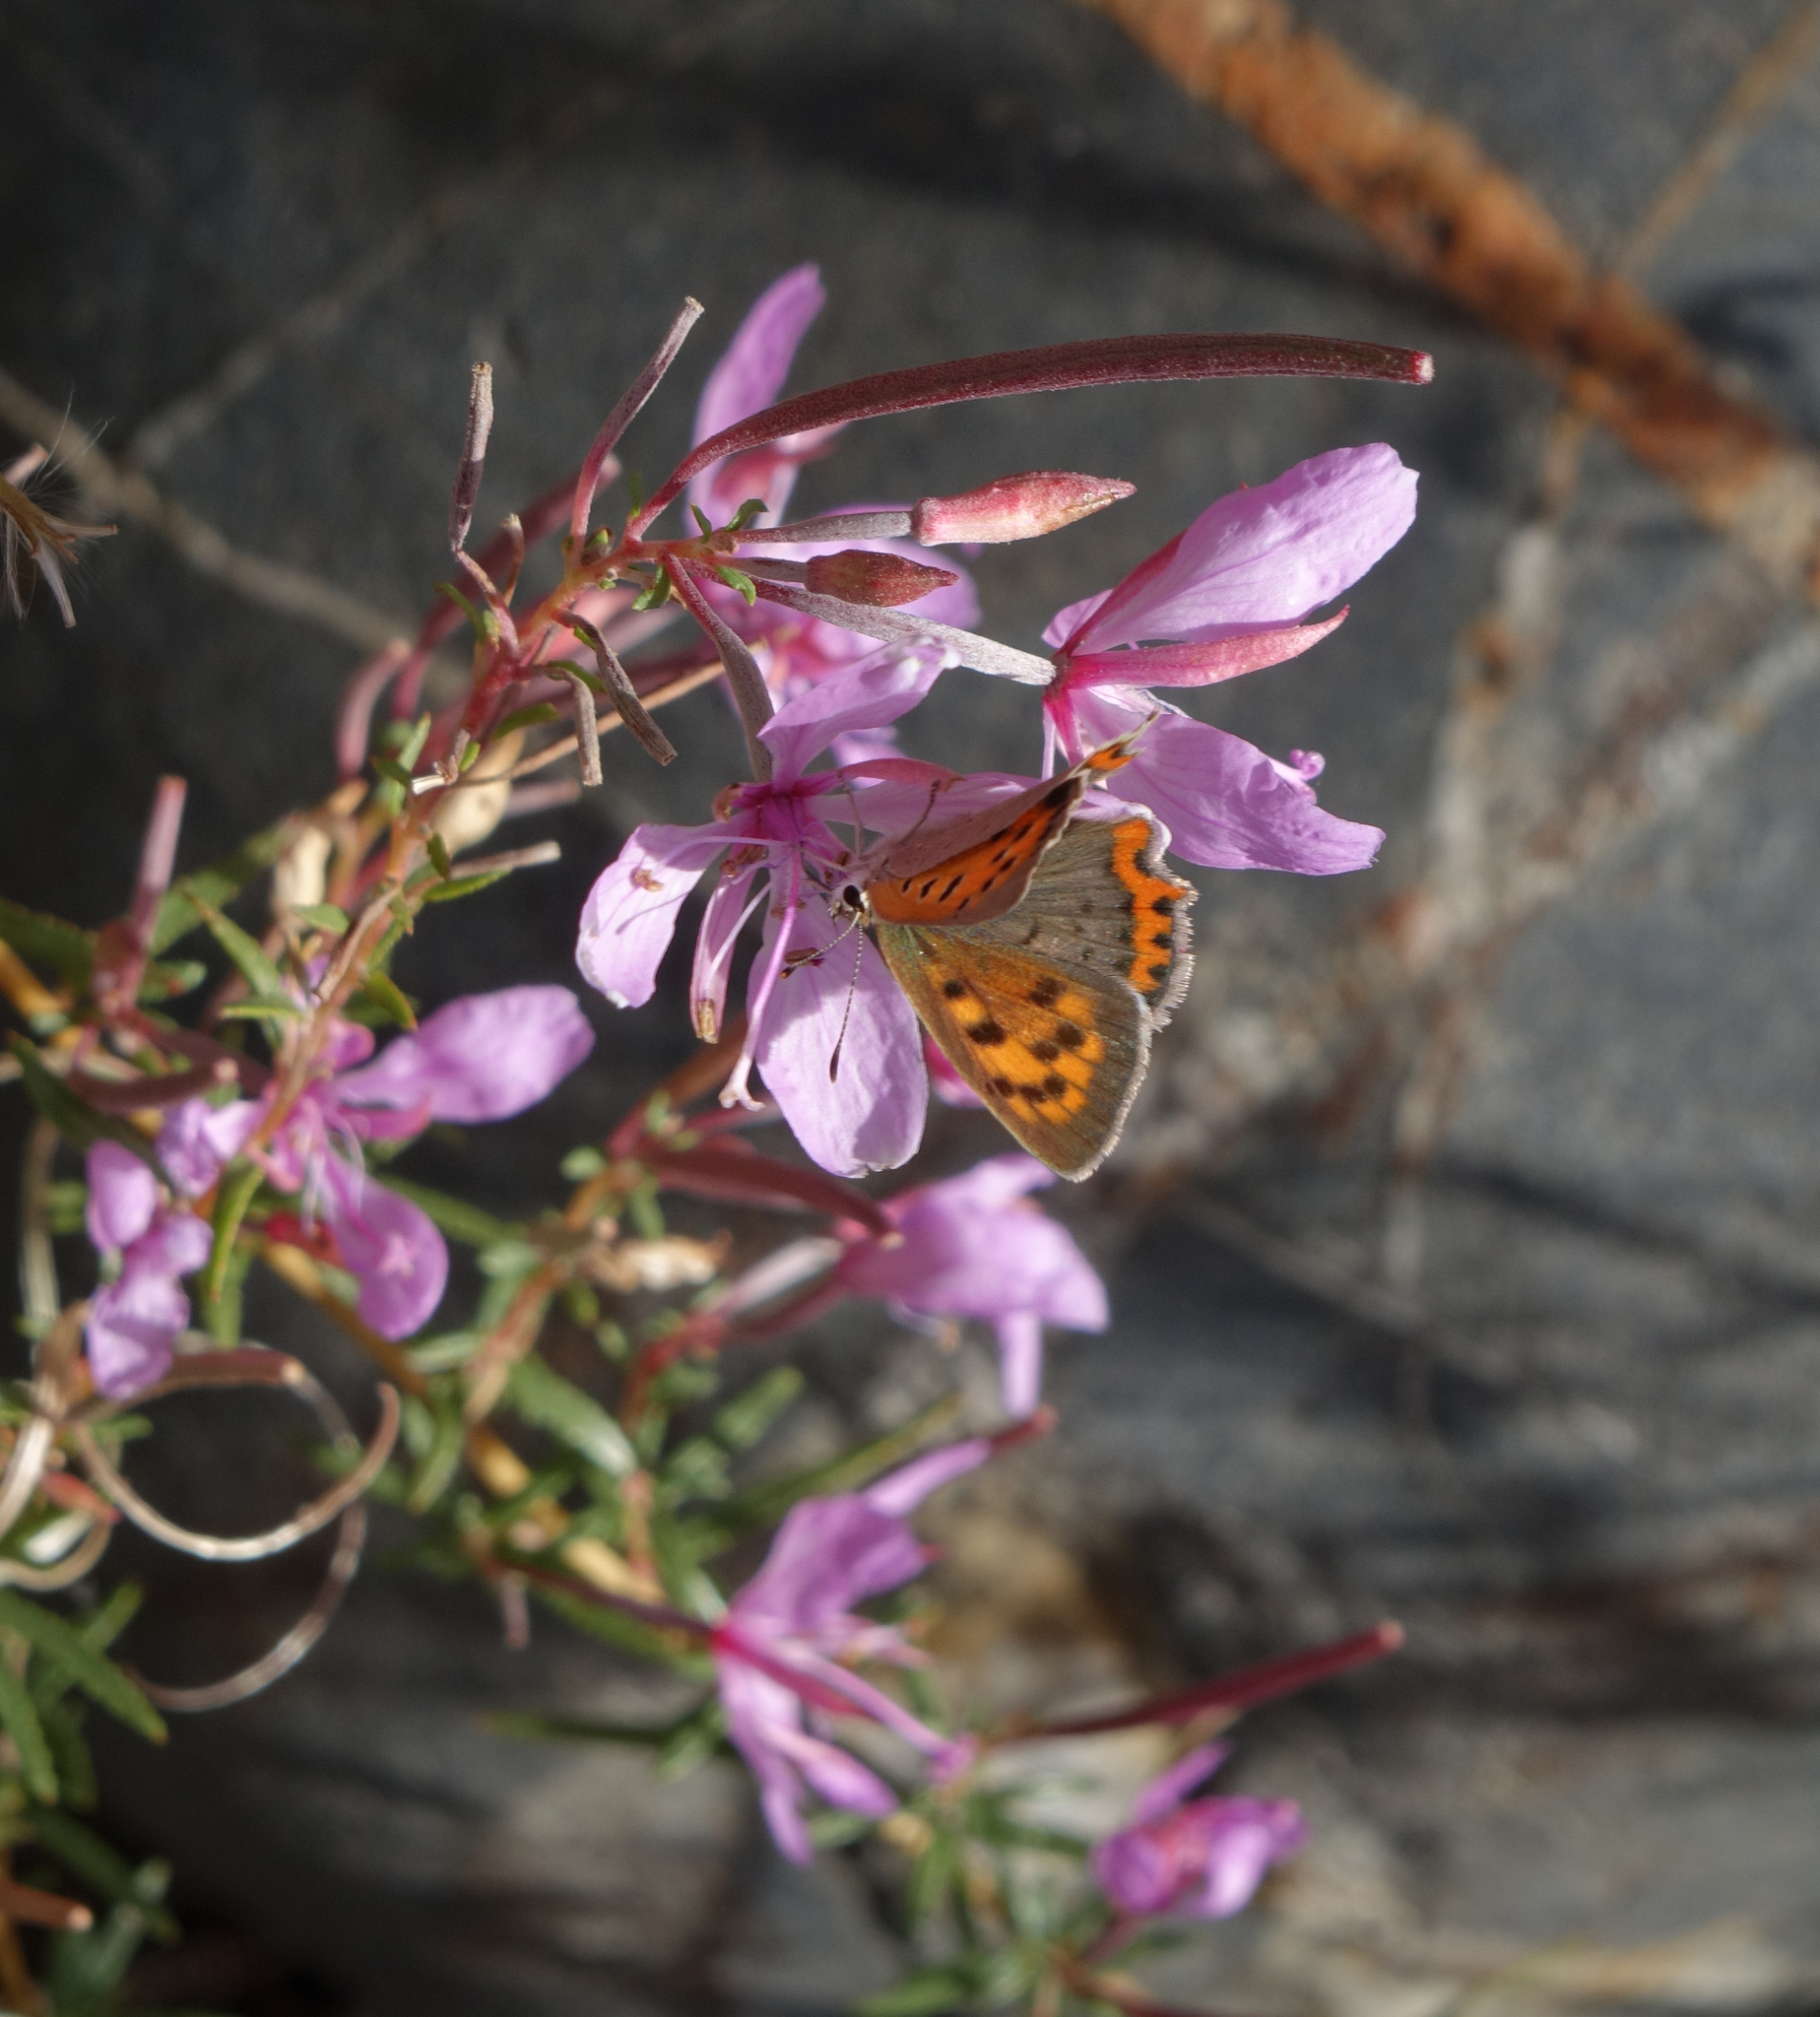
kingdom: Animalia
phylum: Arthropoda
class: Insecta
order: Lepidoptera
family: Lycaenidae
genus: Lycaena
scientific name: Lycaena phlaeas
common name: Small copper
